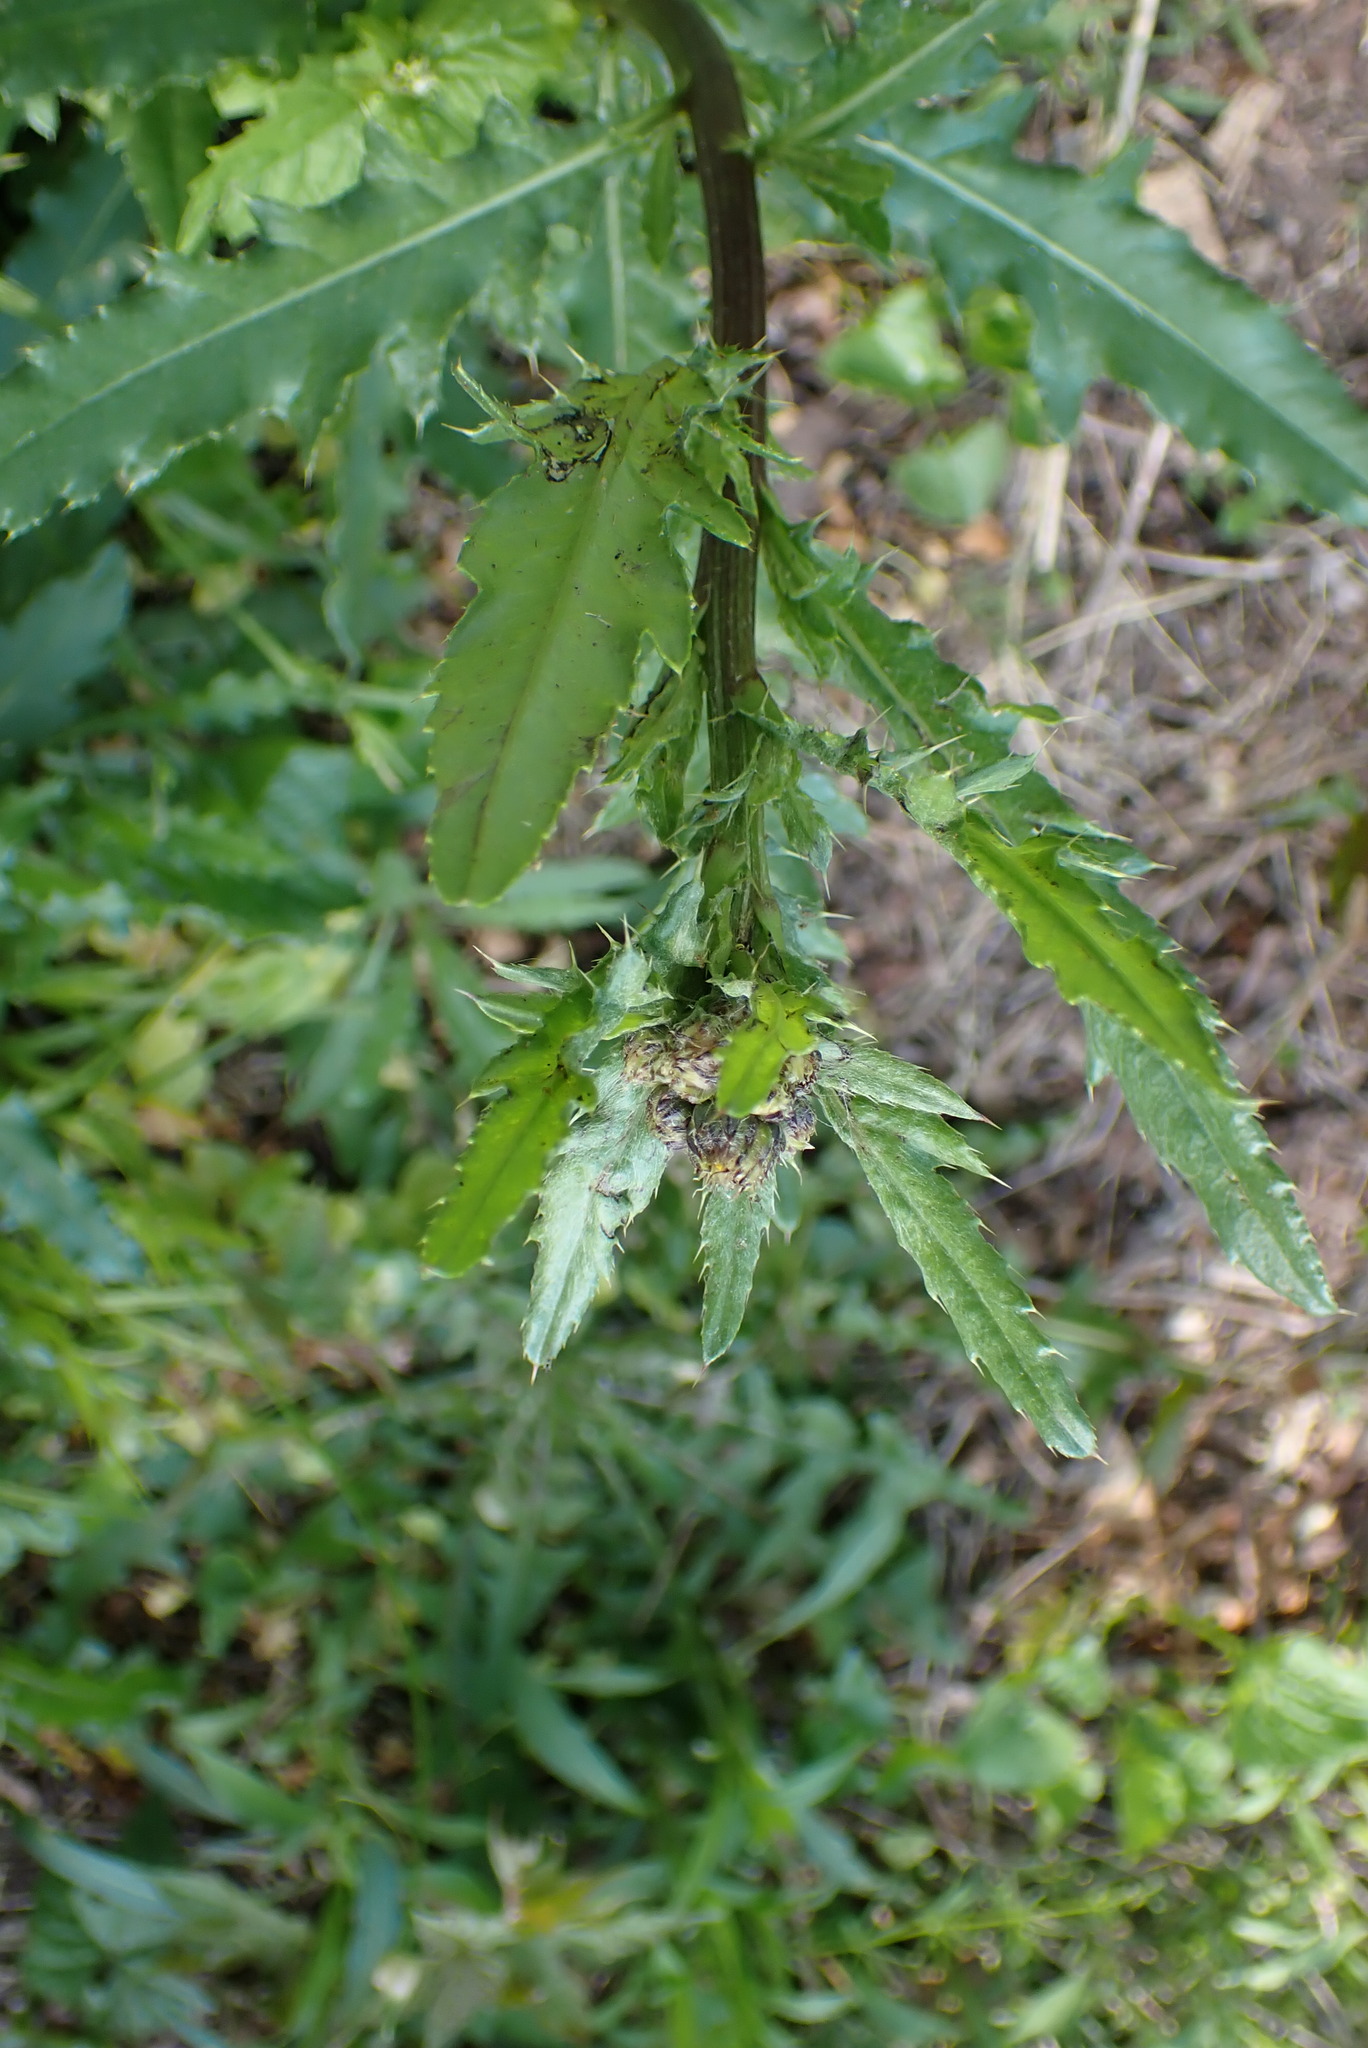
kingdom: Plantae
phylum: Tracheophyta
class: Magnoliopsida
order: Asterales
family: Asteraceae
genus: Cirsium
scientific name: Cirsium arvense
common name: Creeping thistle
